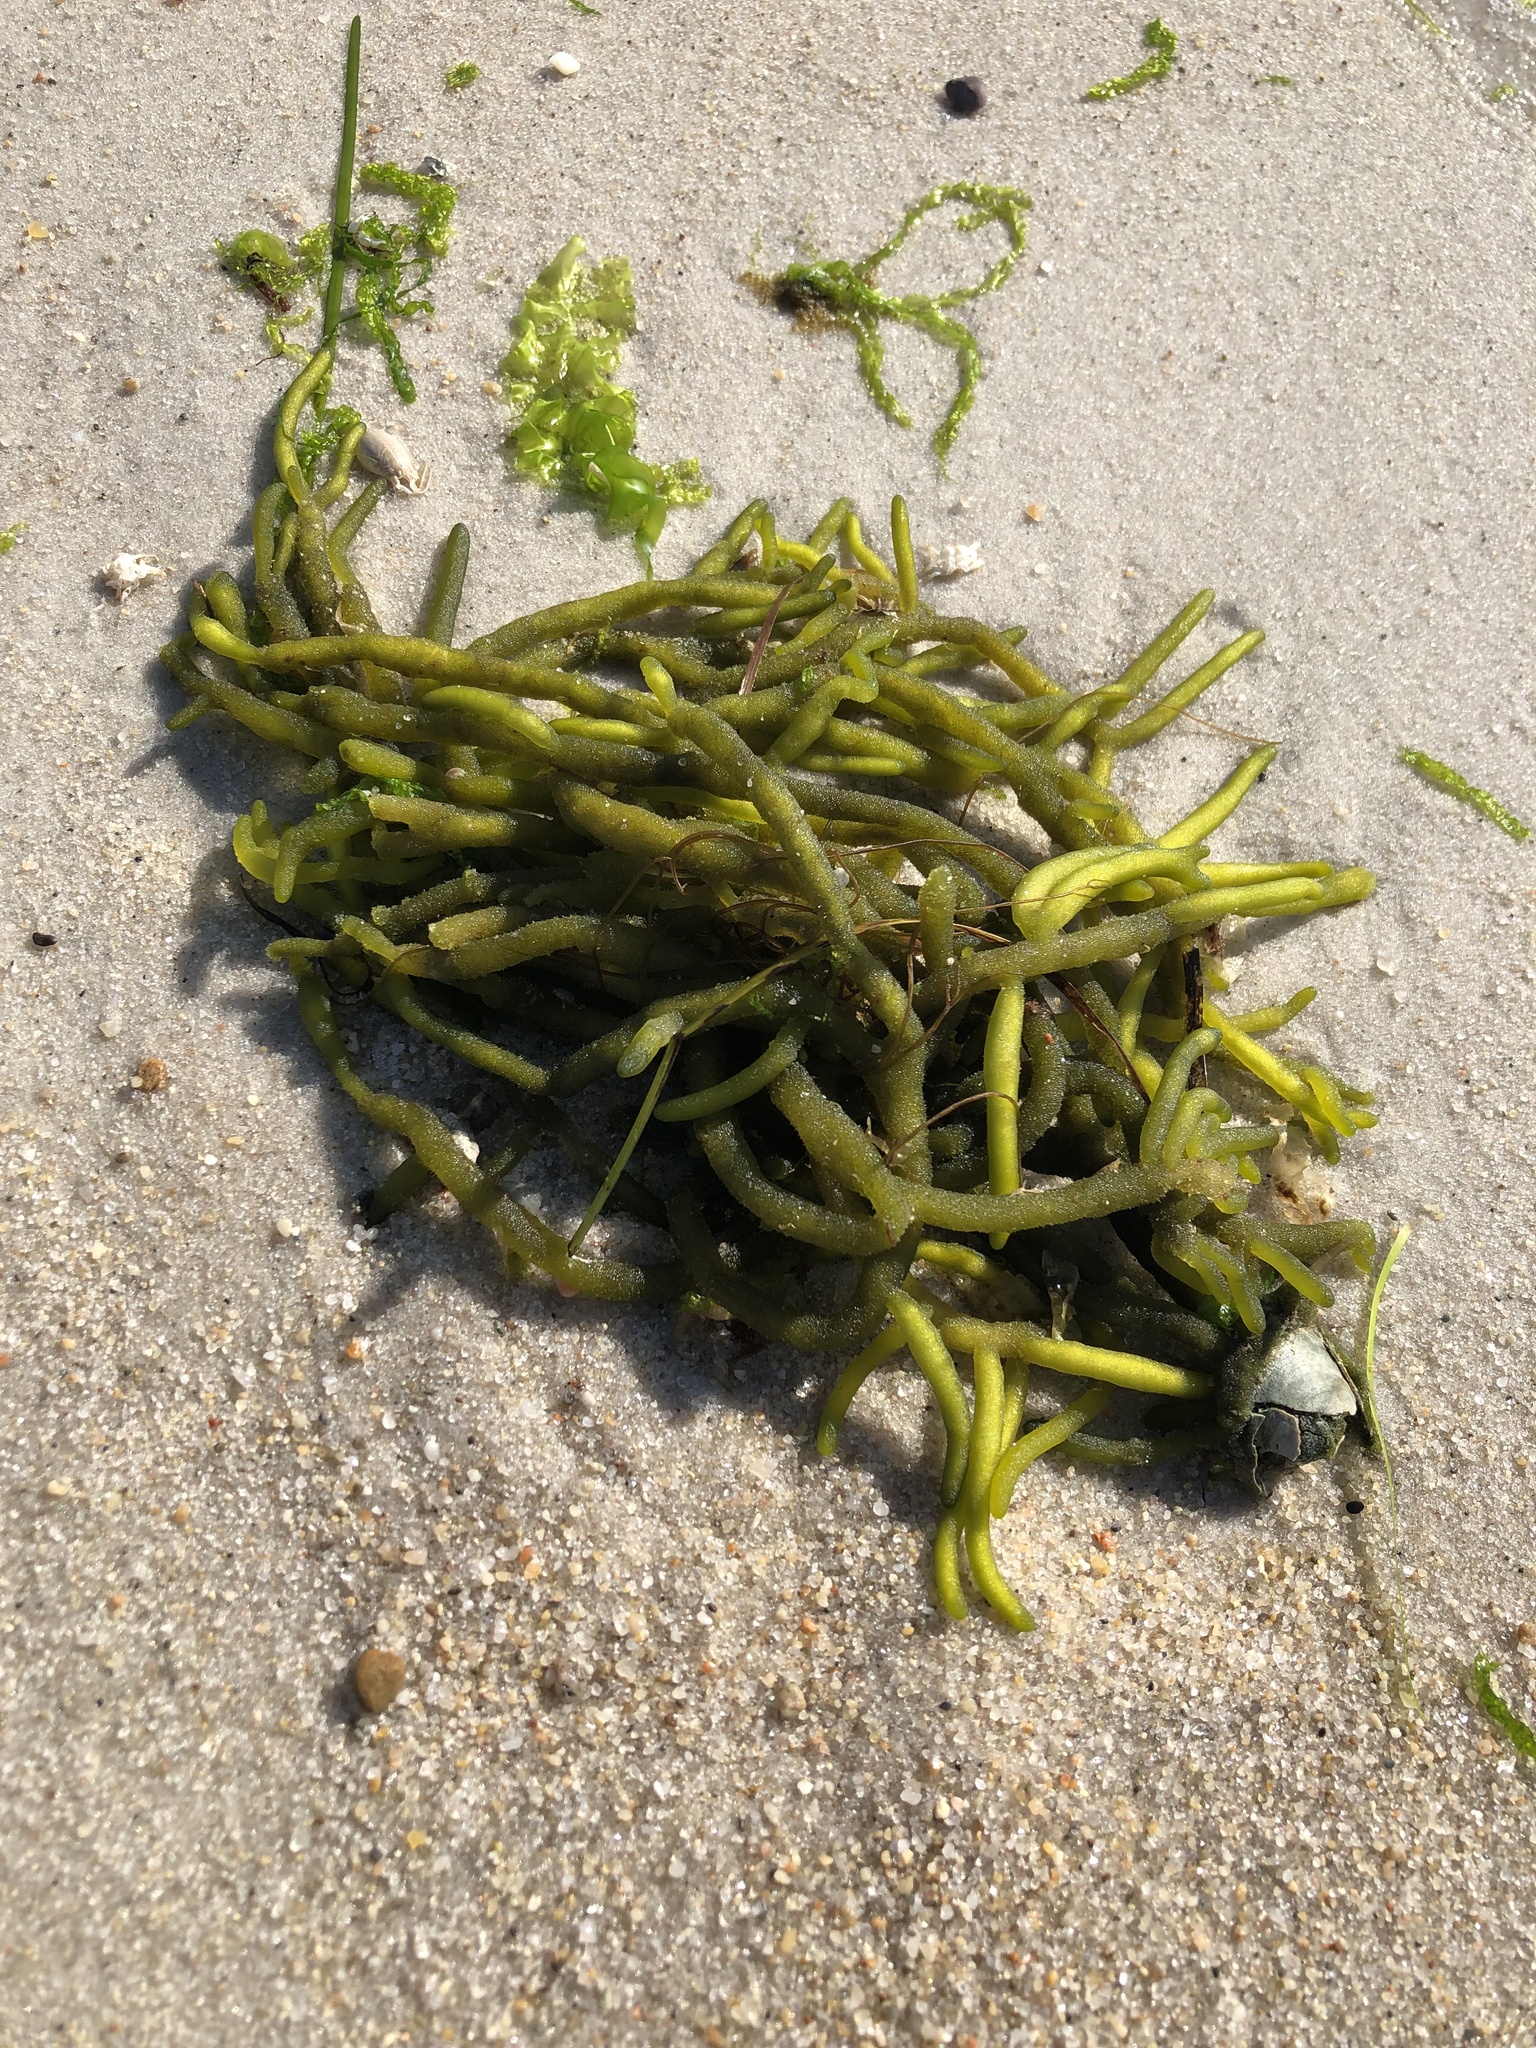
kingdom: Plantae
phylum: Chlorophyta
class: Ulvophyceae
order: Bryopsidales
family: Codiaceae
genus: Codium
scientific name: Codium fragile
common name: Dead man's fingers
